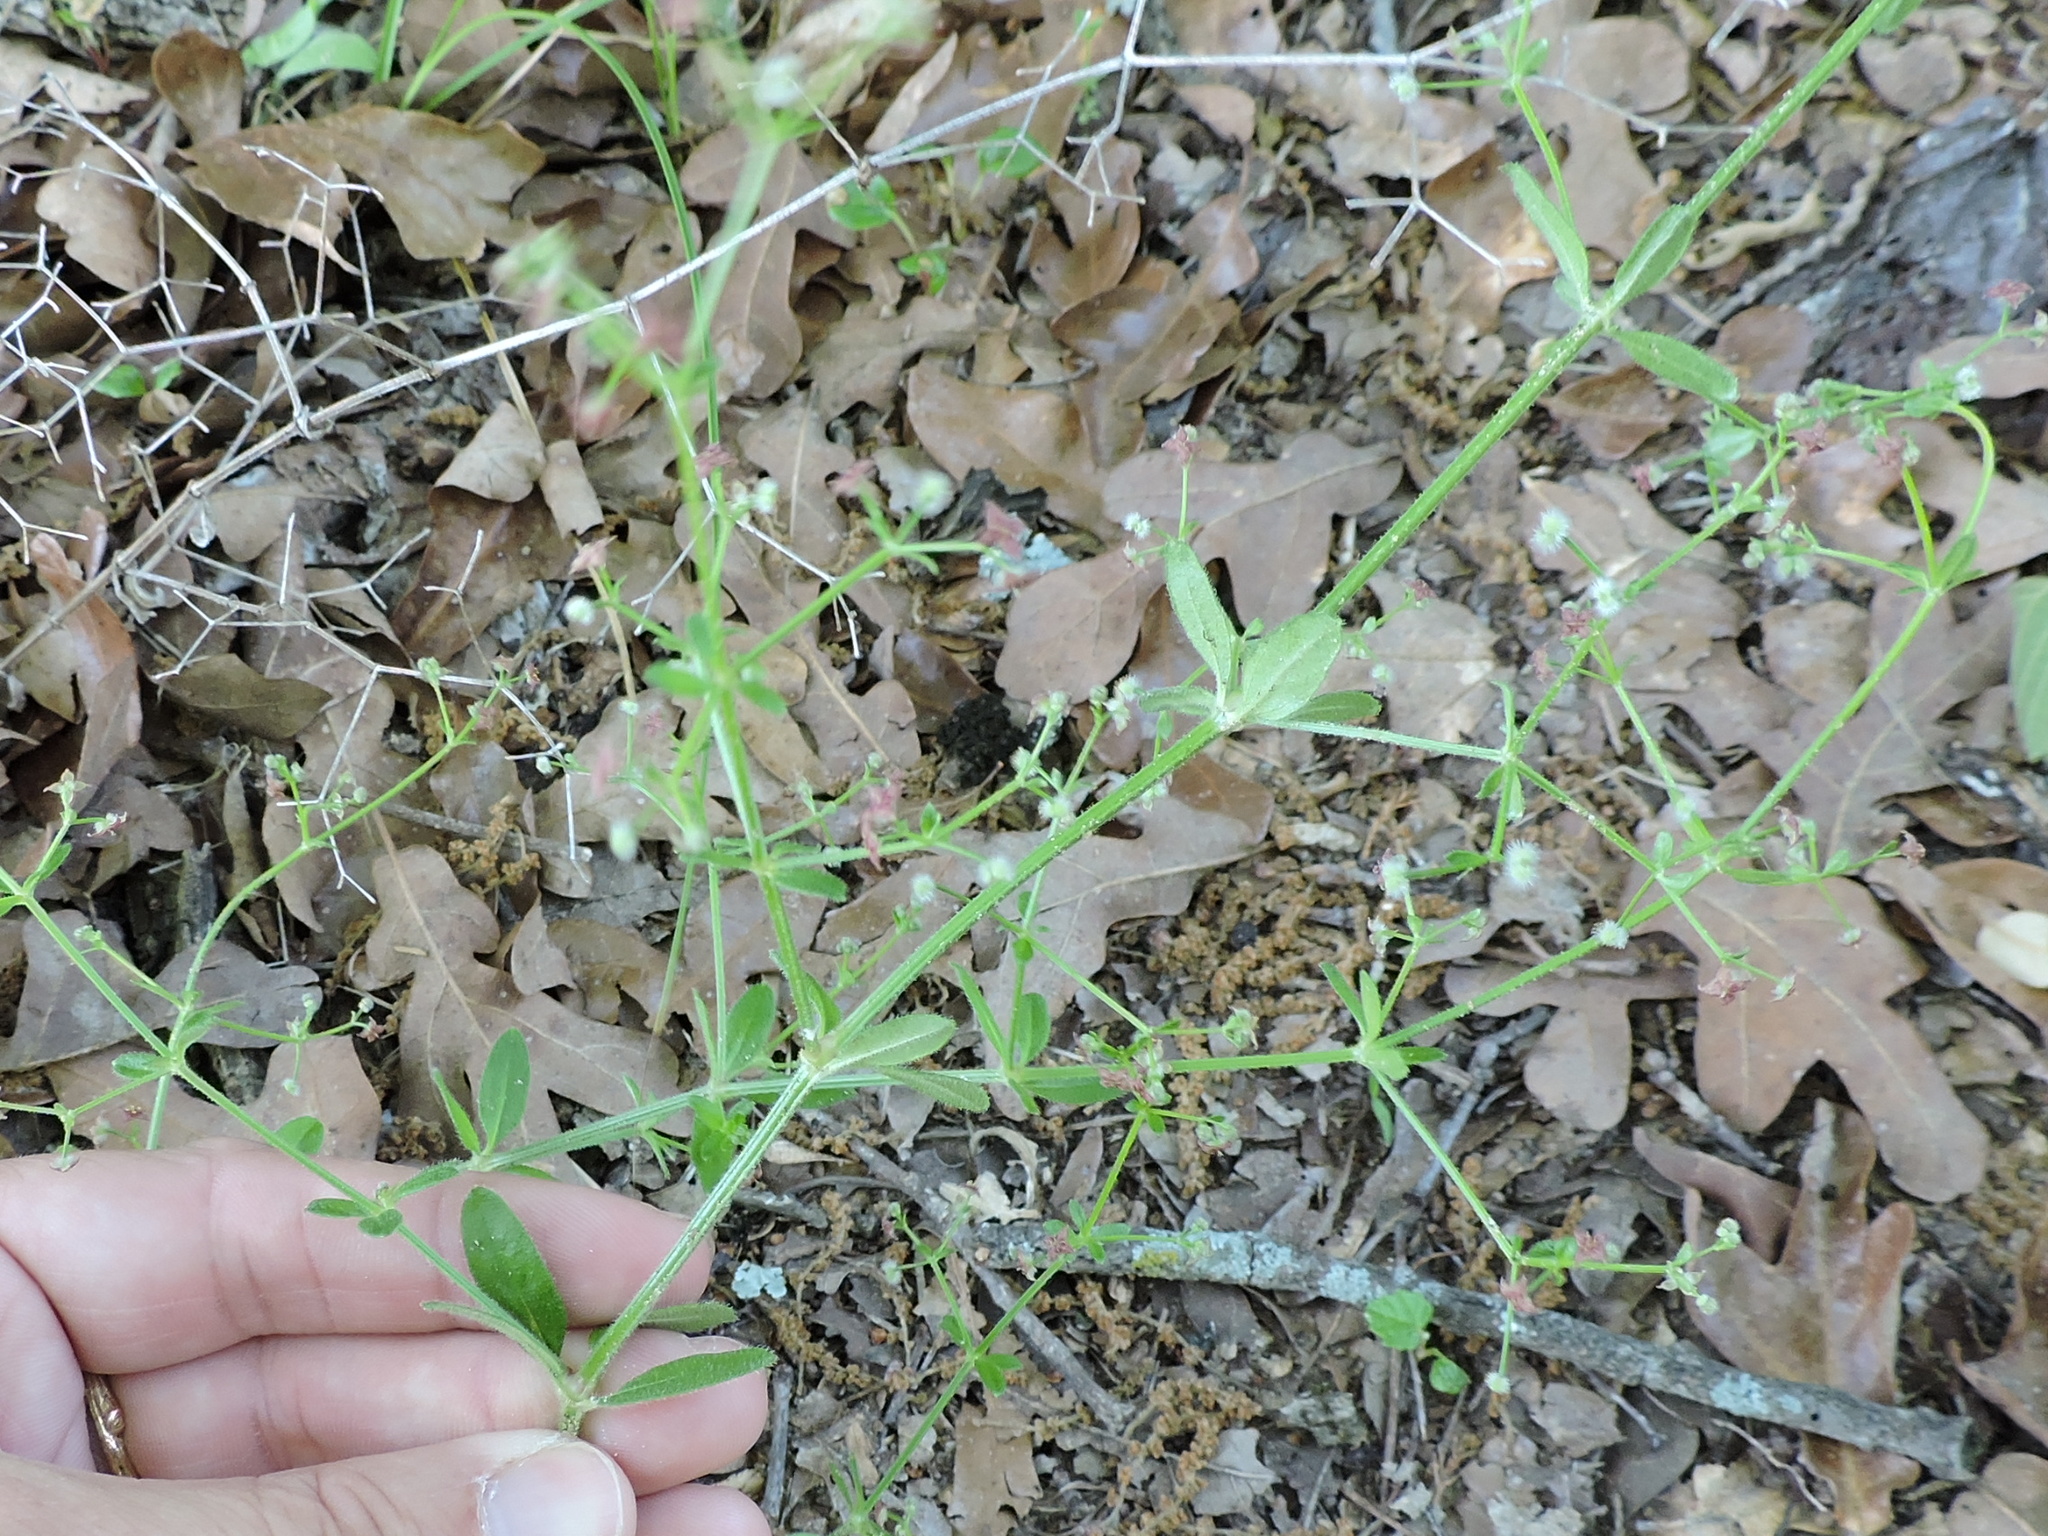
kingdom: Plantae
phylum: Tracheophyta
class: Magnoliopsida
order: Gentianales
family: Rubiaceae
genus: Galium
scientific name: Galium pilosum
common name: Hairy bedstraw
